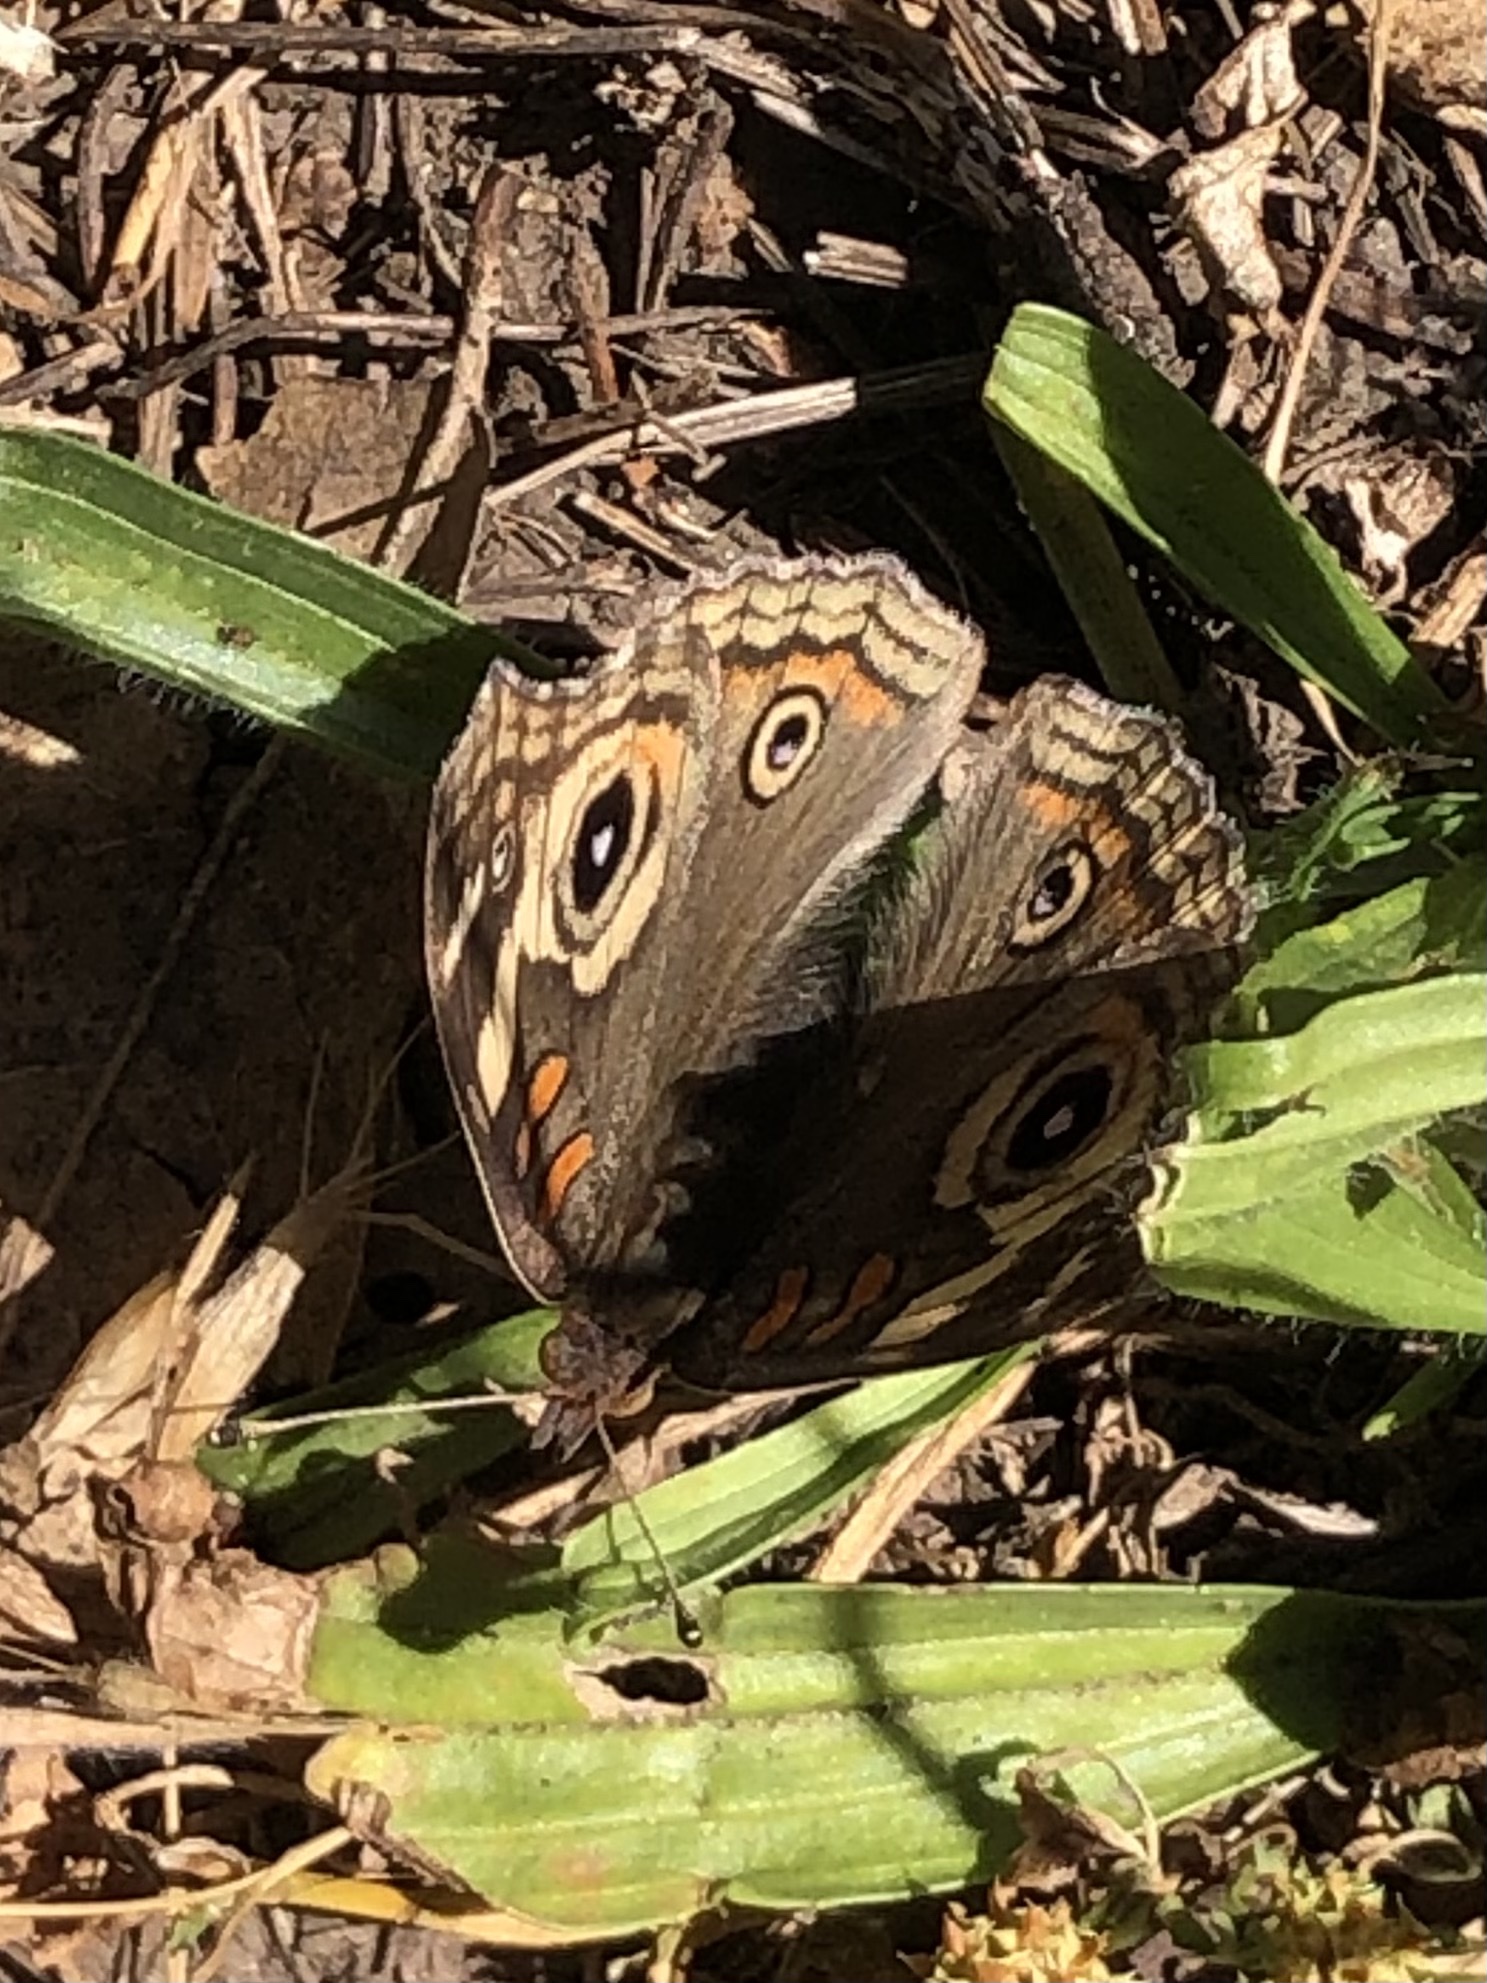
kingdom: Animalia
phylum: Arthropoda
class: Insecta
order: Lepidoptera
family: Nymphalidae
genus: Junonia
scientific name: Junonia grisea
